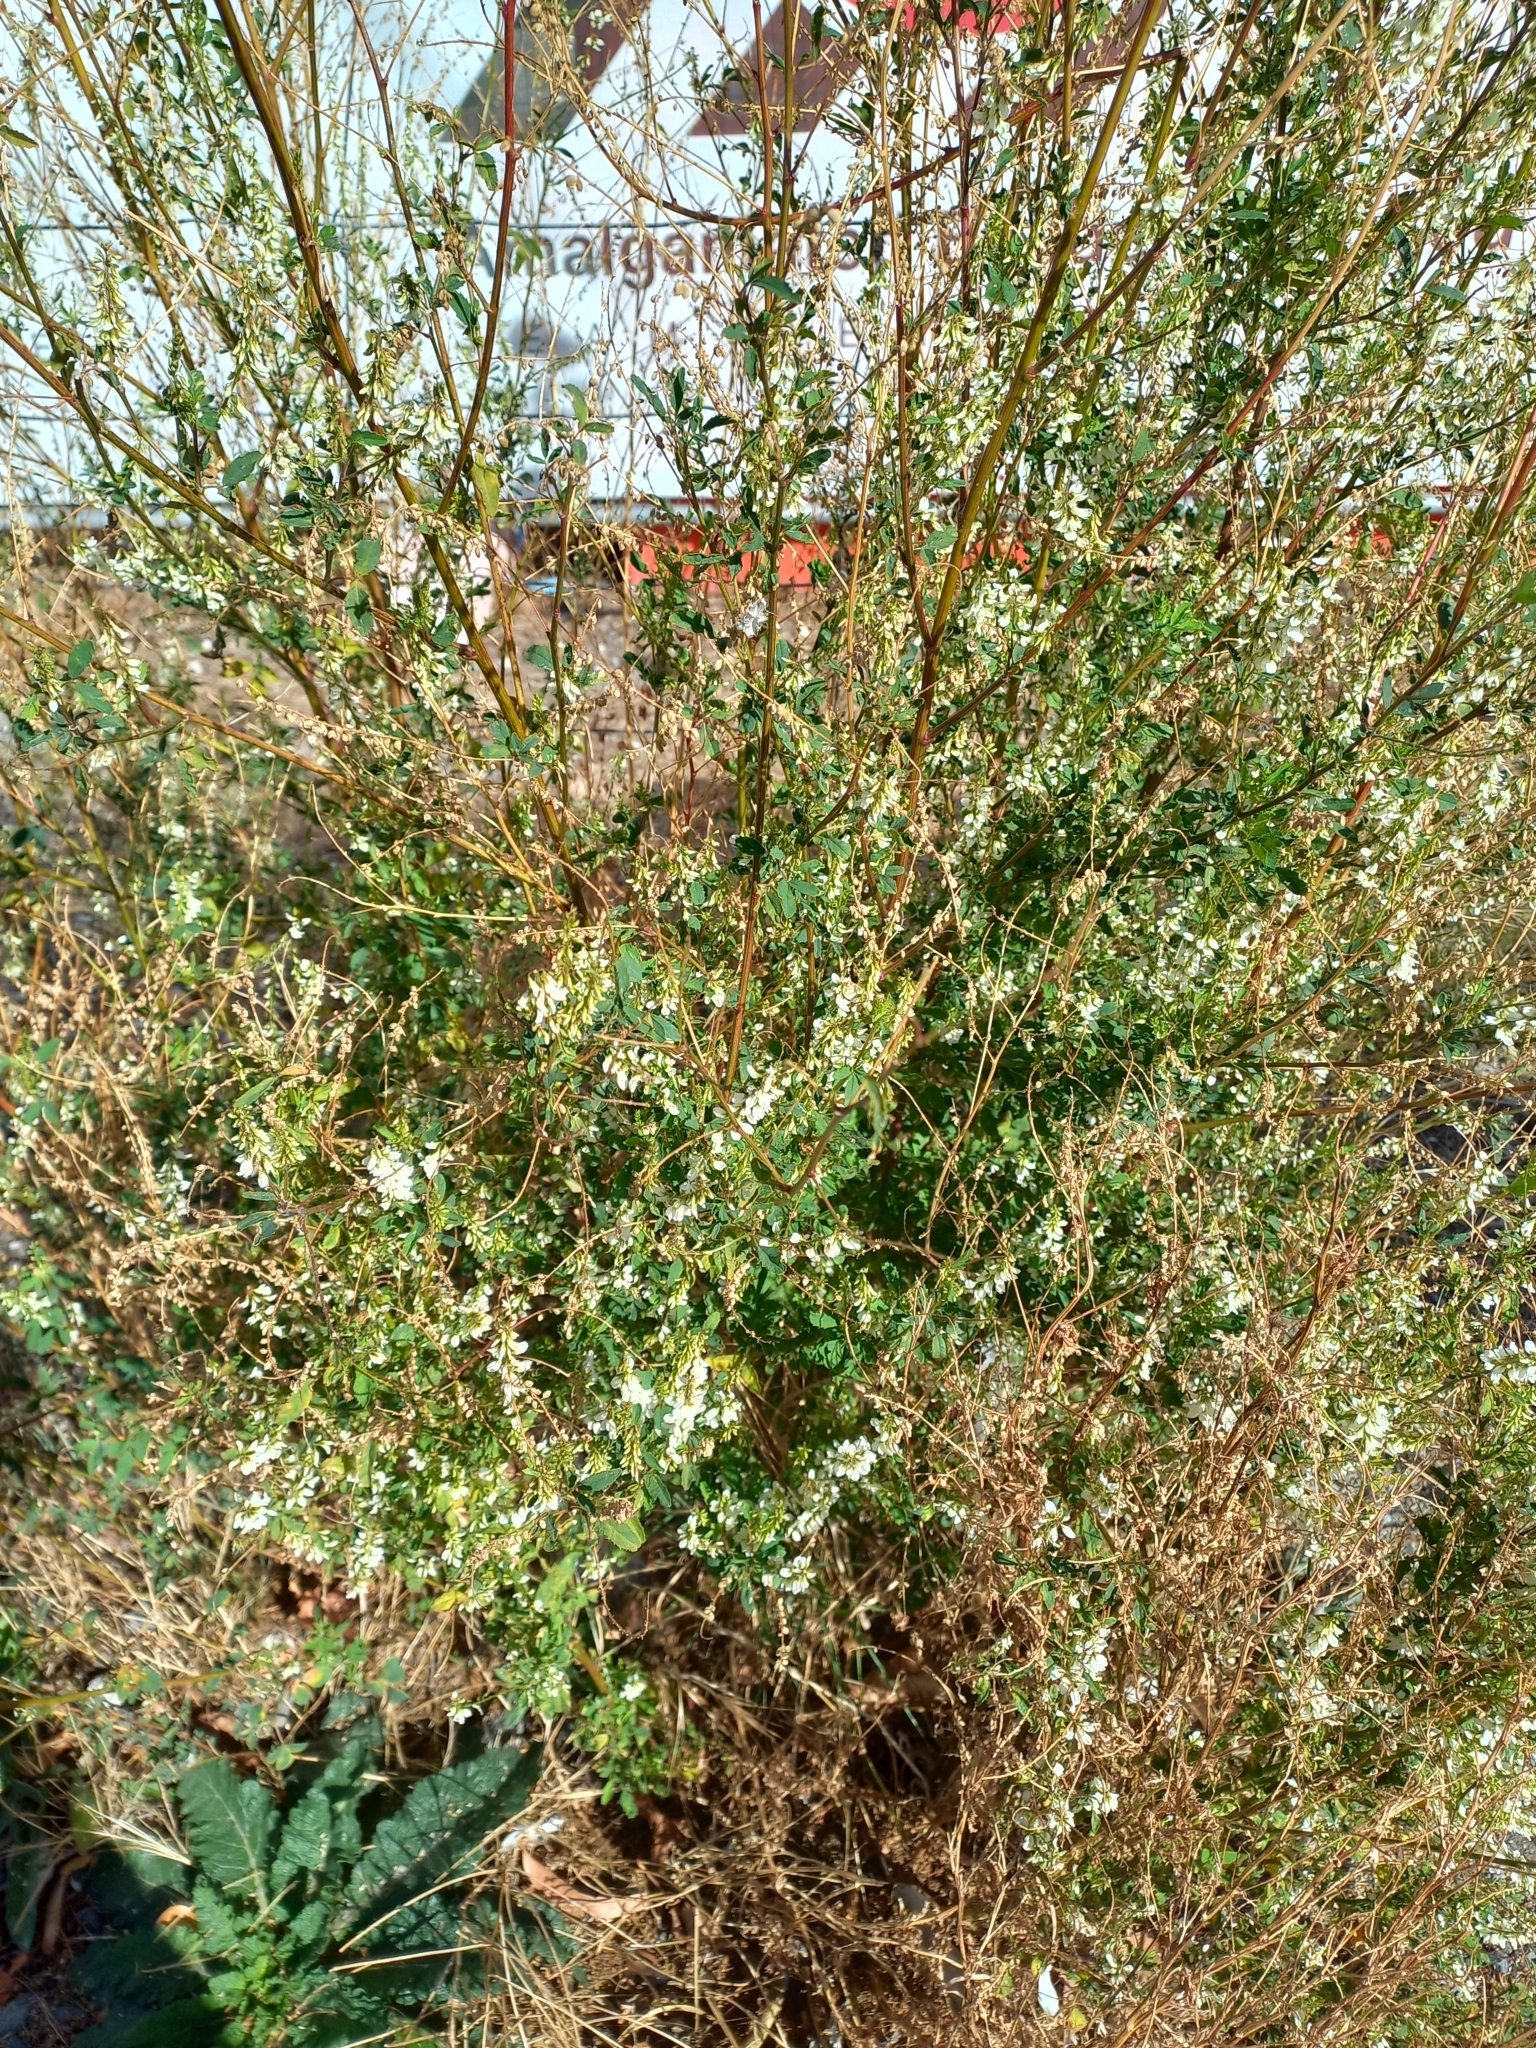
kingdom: Plantae
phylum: Tracheophyta
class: Magnoliopsida
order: Fabales
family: Fabaceae
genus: Melilotus
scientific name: Melilotus albus
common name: White melilot
